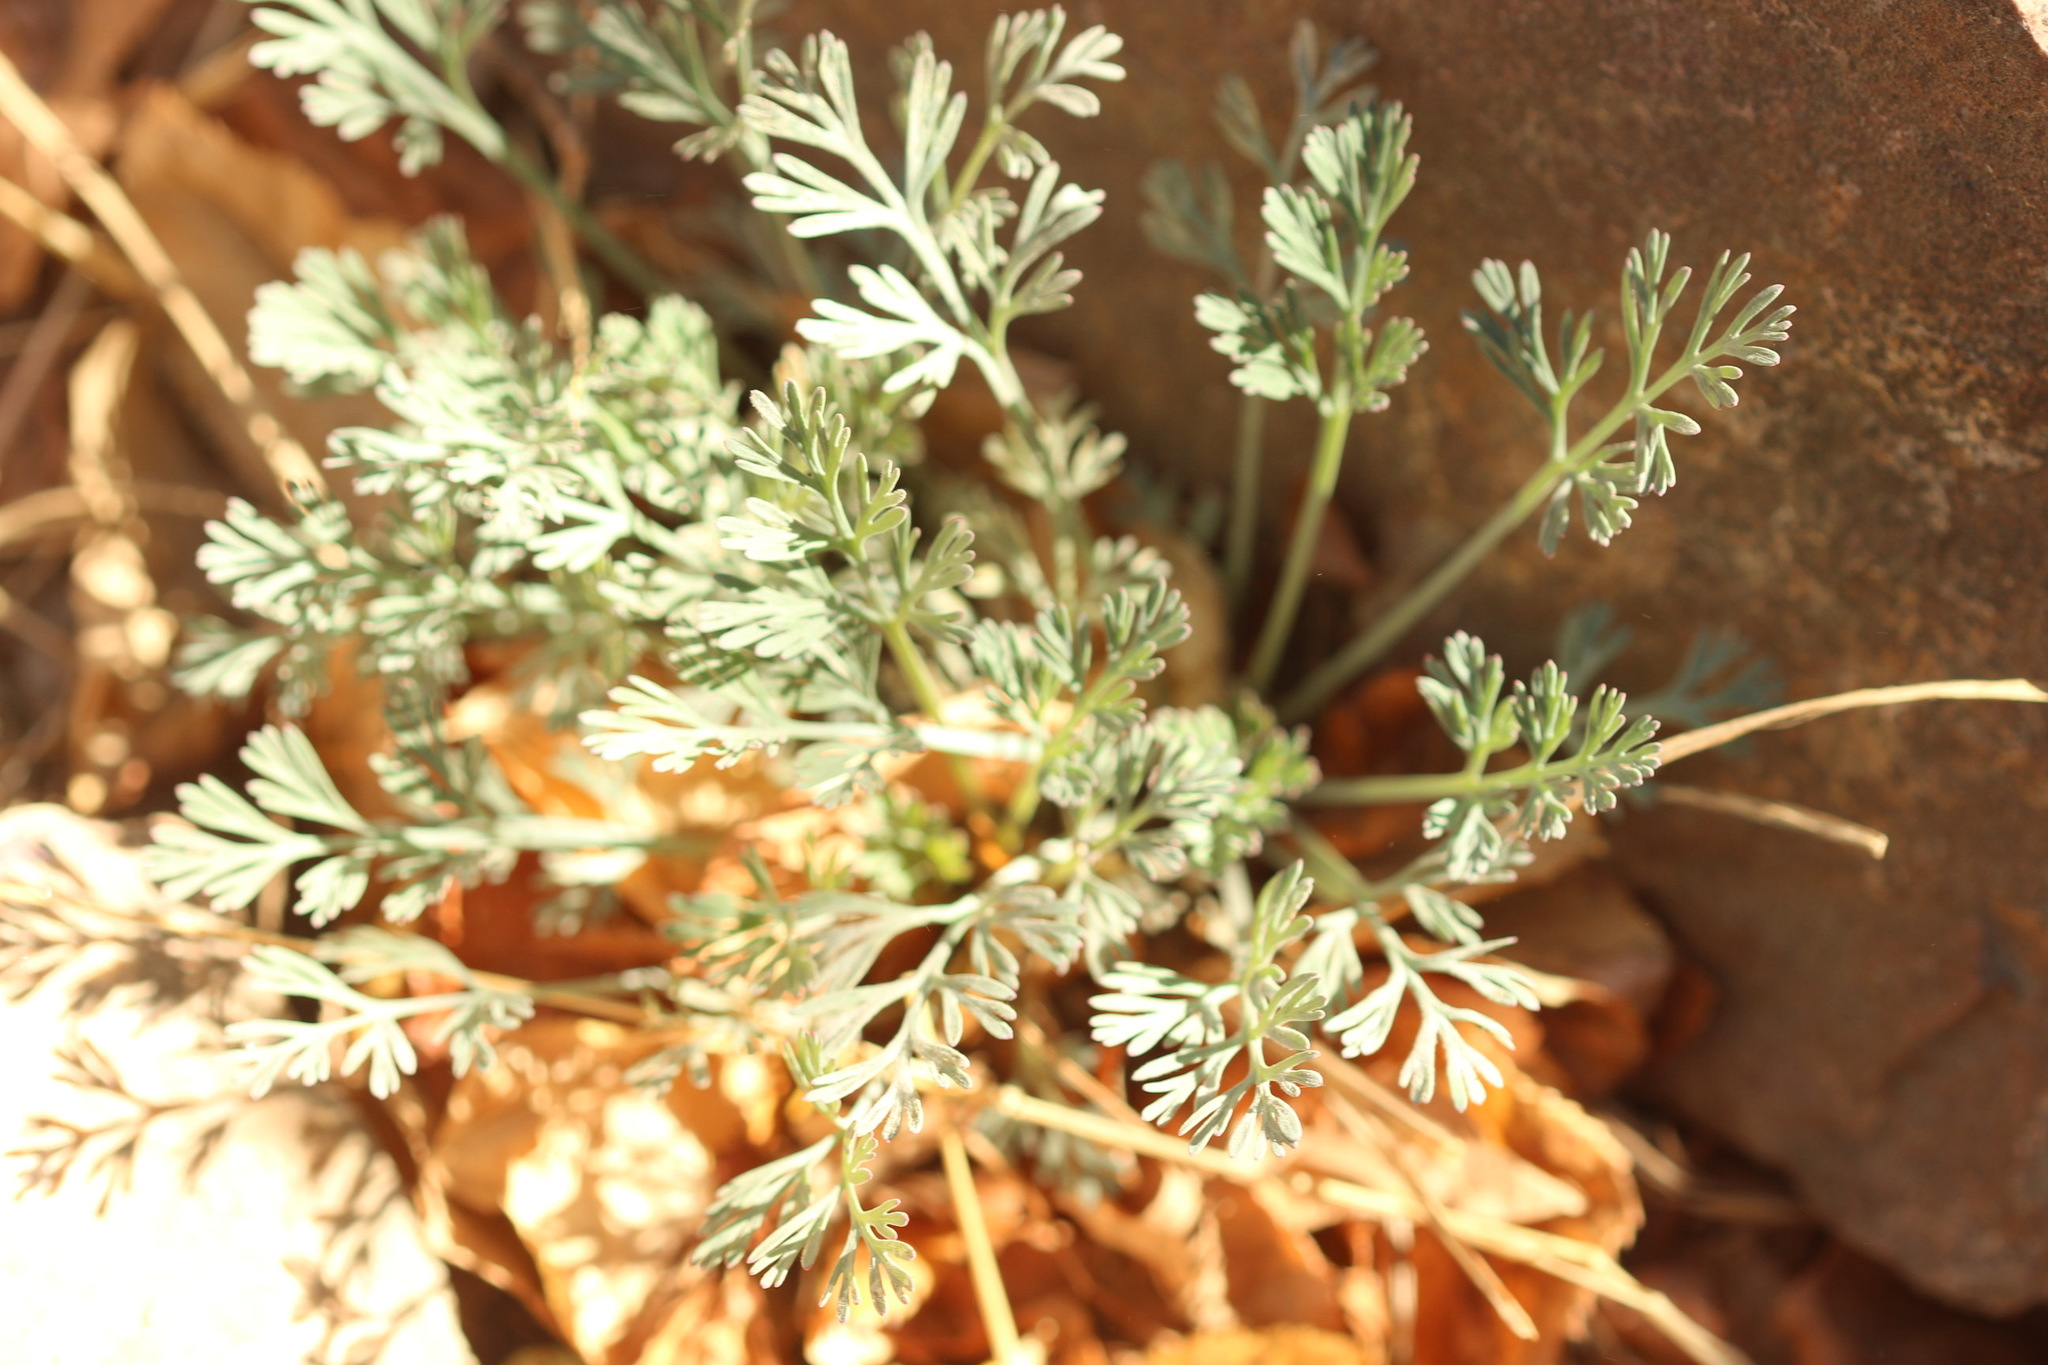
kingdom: Plantae
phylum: Tracheophyta
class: Magnoliopsida
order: Ranunculales
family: Papaveraceae
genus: Eschscholzia
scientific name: Eschscholzia californica
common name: California poppy
